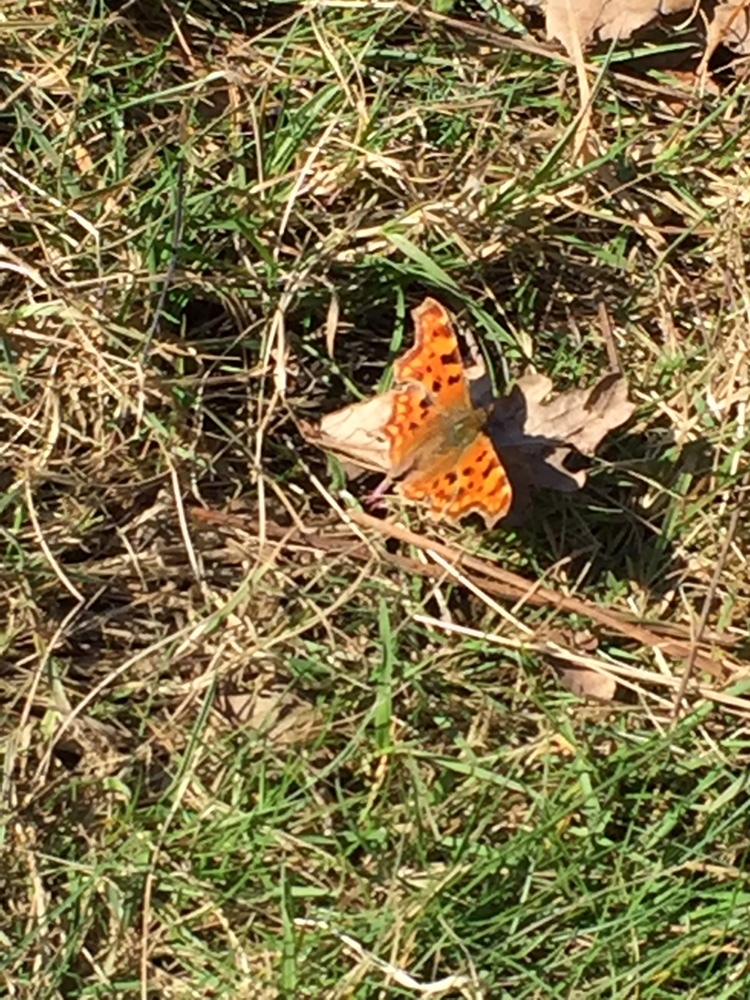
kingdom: Animalia
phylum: Arthropoda
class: Insecta
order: Lepidoptera
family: Nymphalidae
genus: Polygonia
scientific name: Polygonia c-album
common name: Comma
